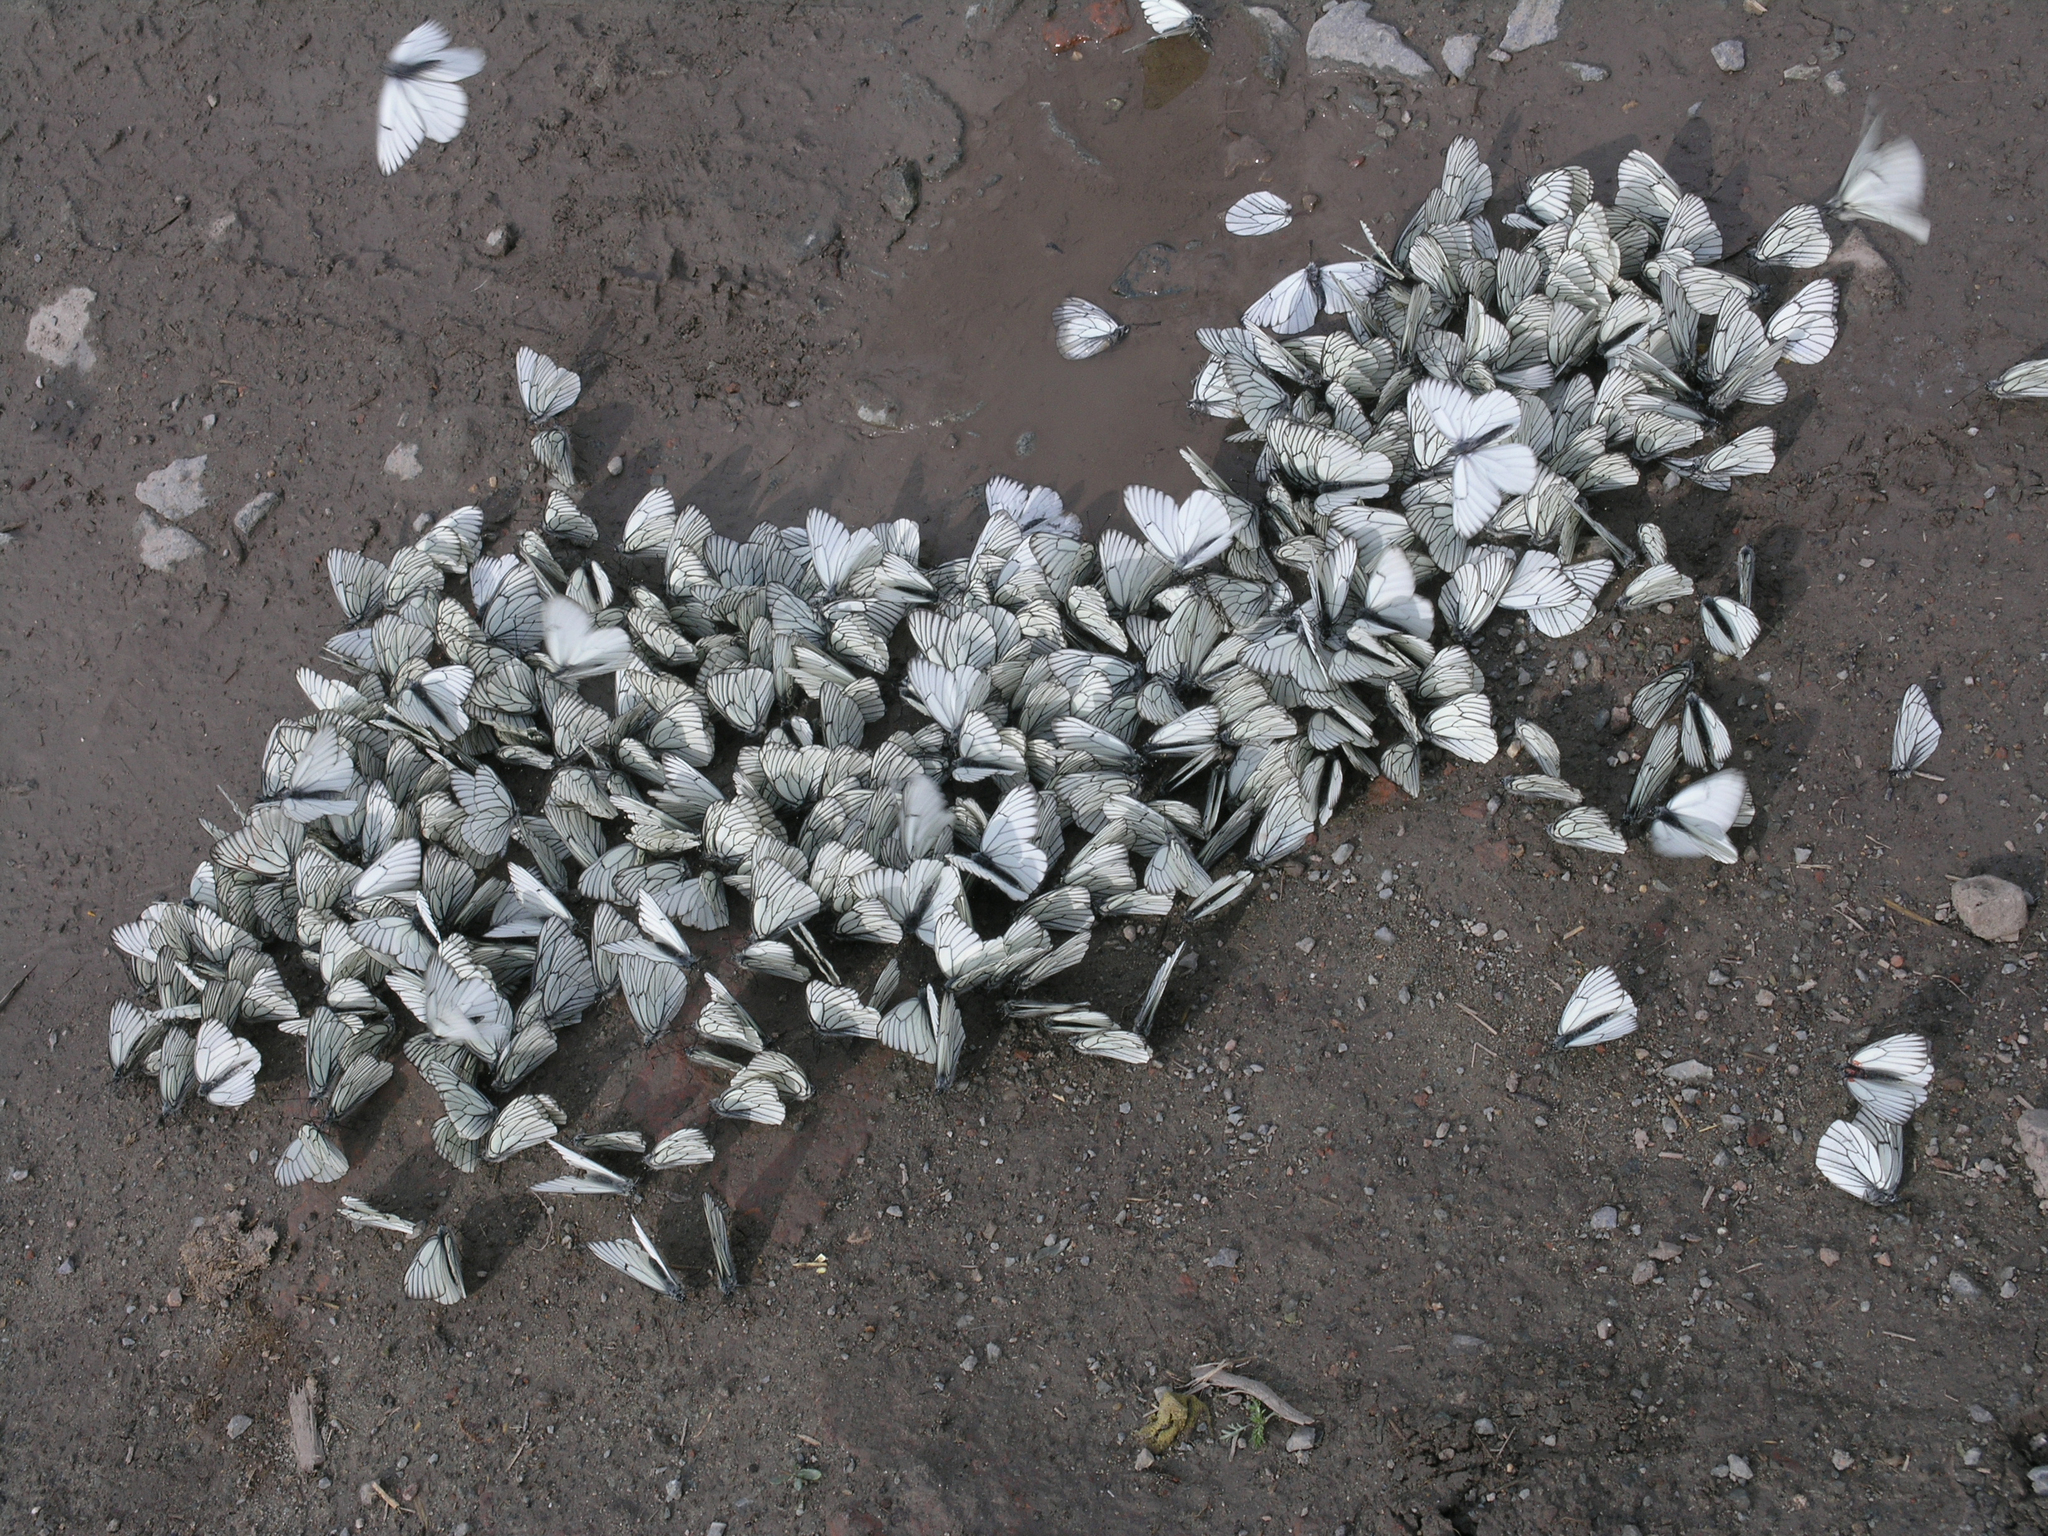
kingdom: Animalia
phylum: Arthropoda
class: Insecta
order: Lepidoptera
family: Pieridae
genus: Aporia
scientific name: Aporia crataegi
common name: Black-veined white
